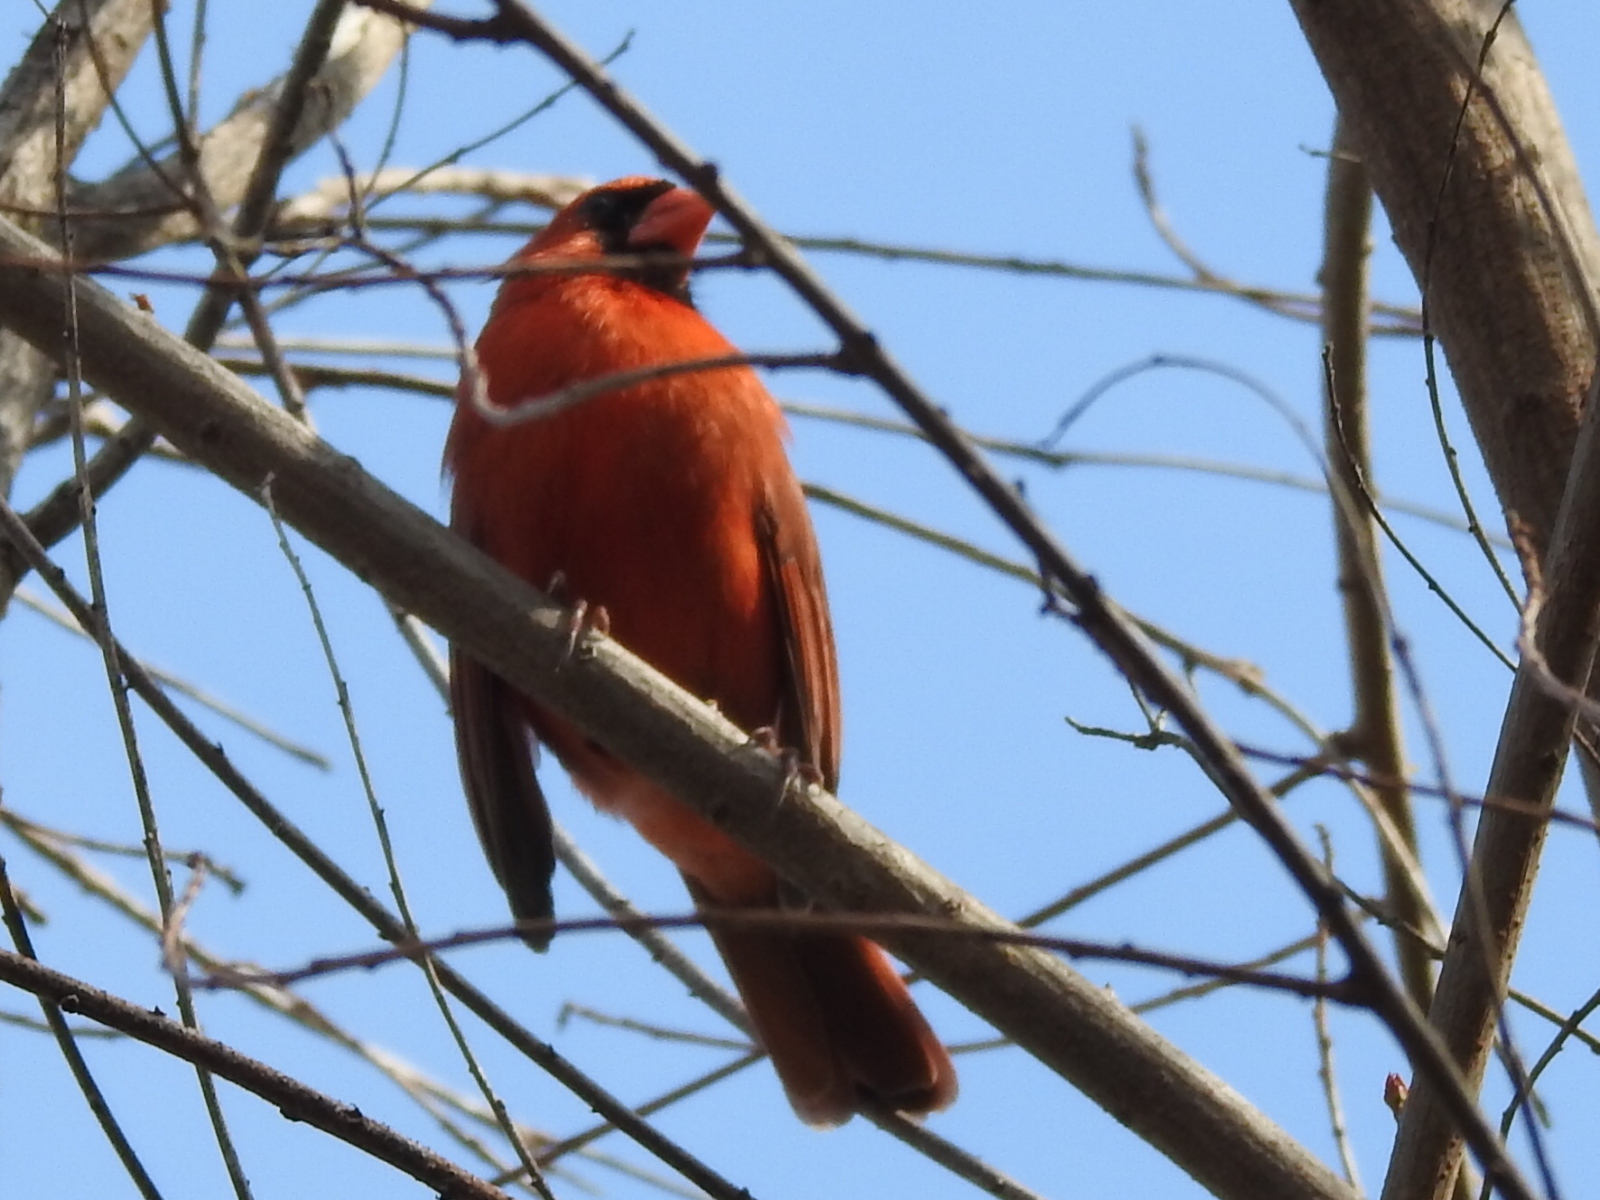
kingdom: Animalia
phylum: Chordata
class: Aves
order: Passeriformes
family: Cardinalidae
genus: Cardinalis
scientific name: Cardinalis cardinalis
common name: Northern cardinal
